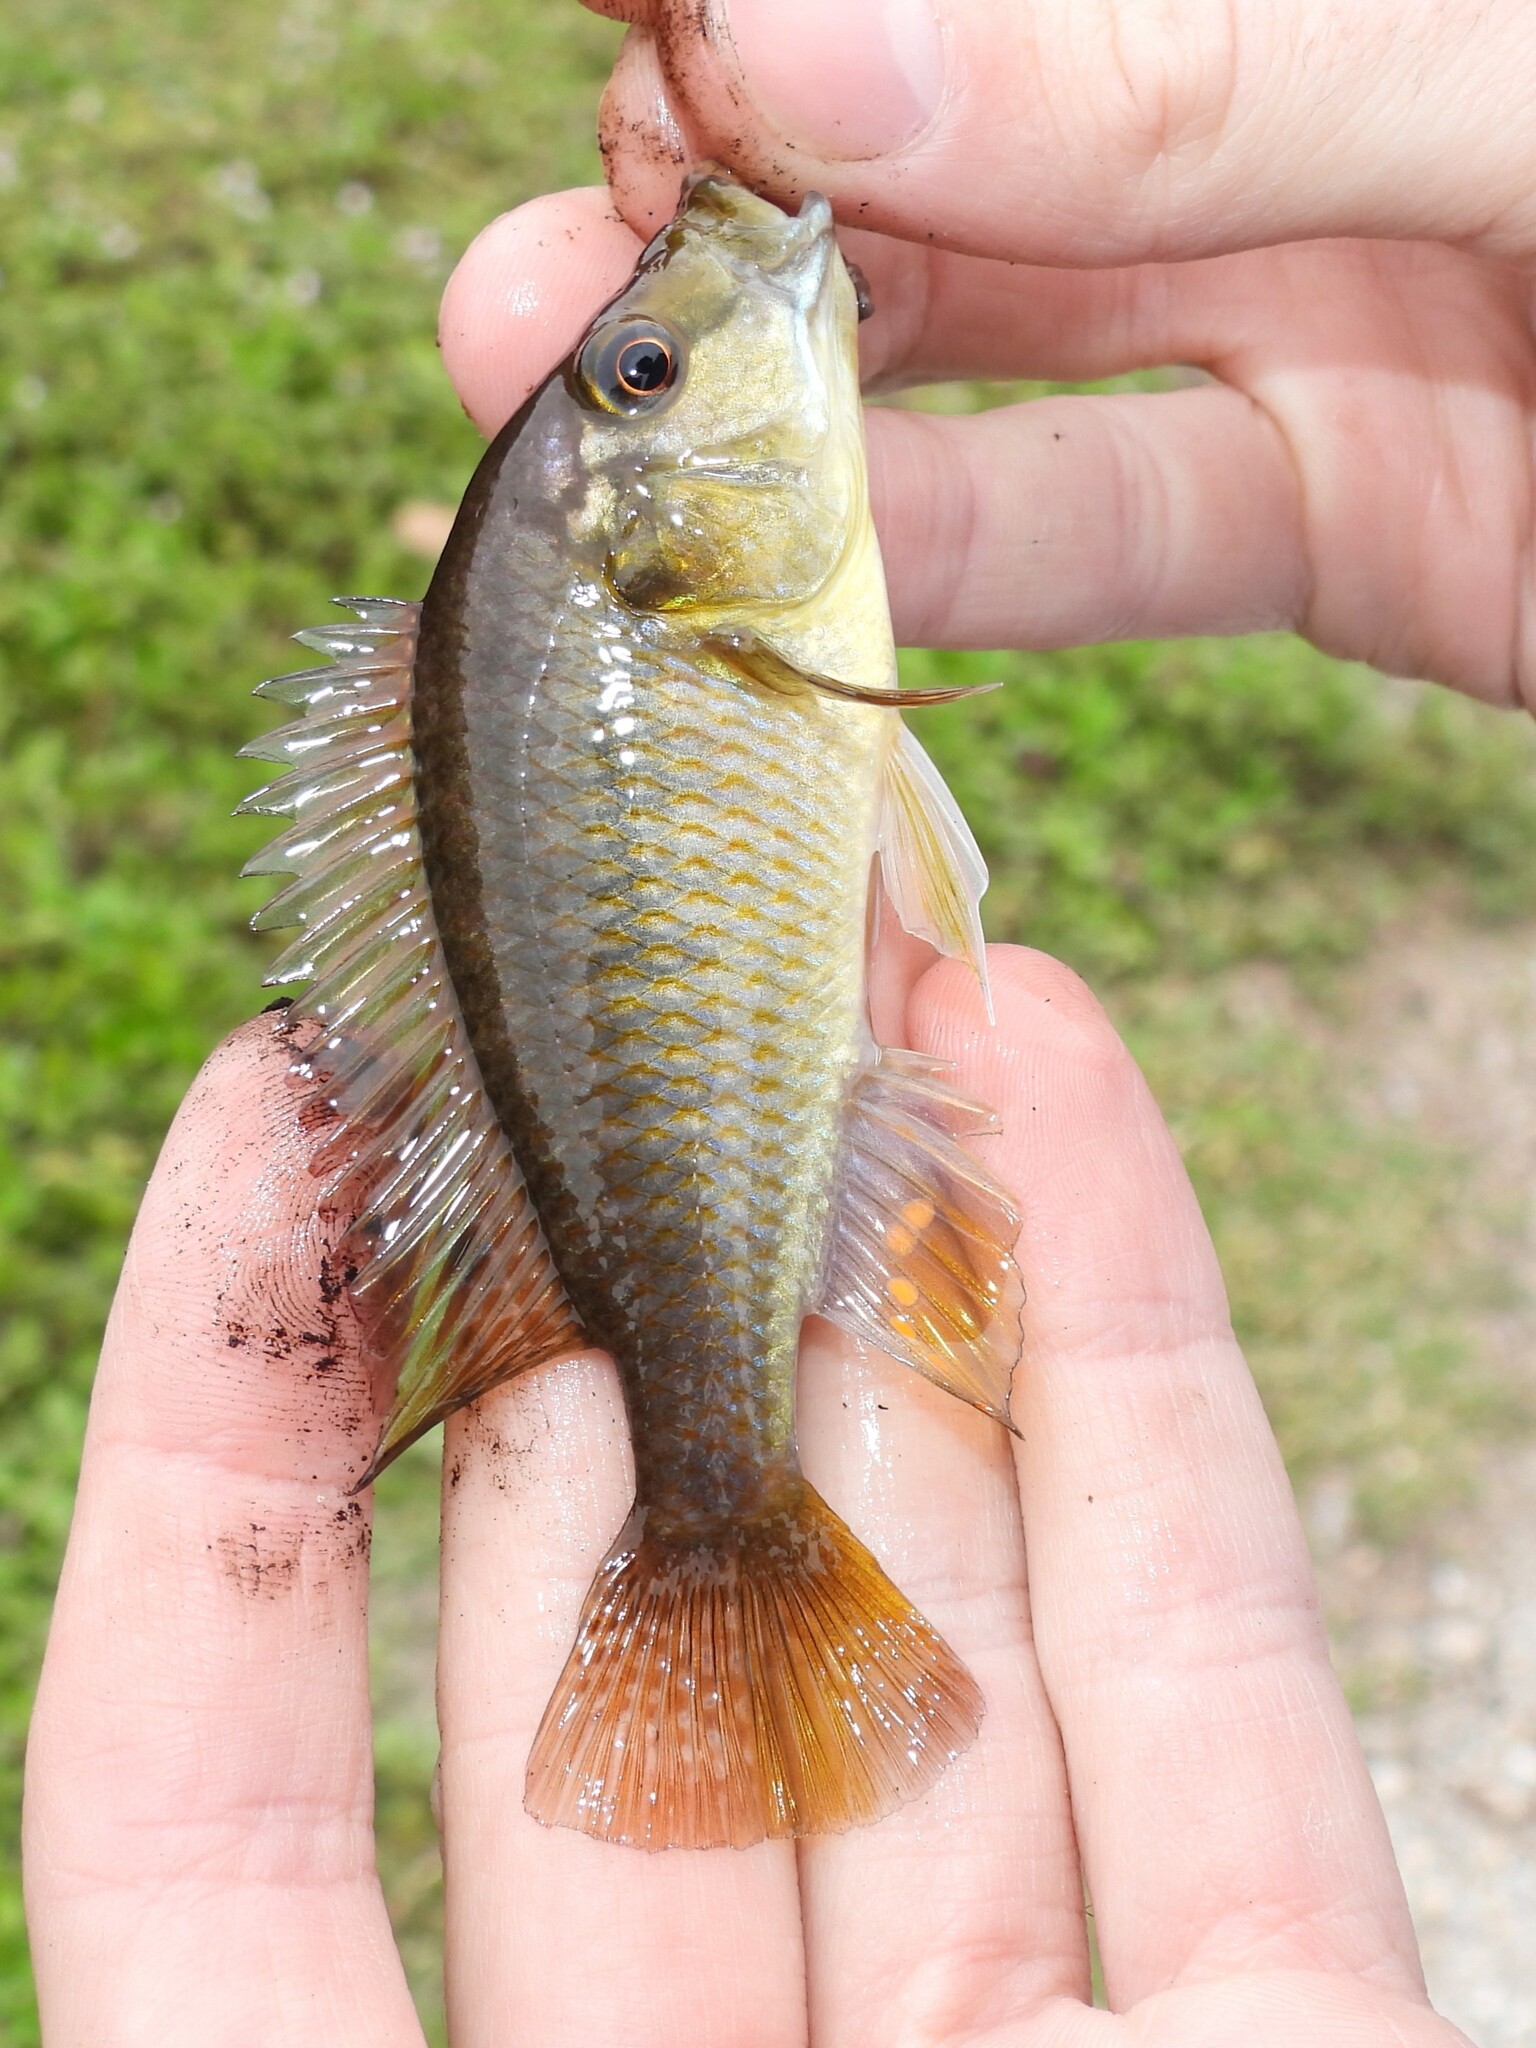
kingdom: Animalia
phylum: Chordata
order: Perciformes
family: Cichlidae
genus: Astatotilapia
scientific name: Astatotilapia calliptera
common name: Eastern happy
